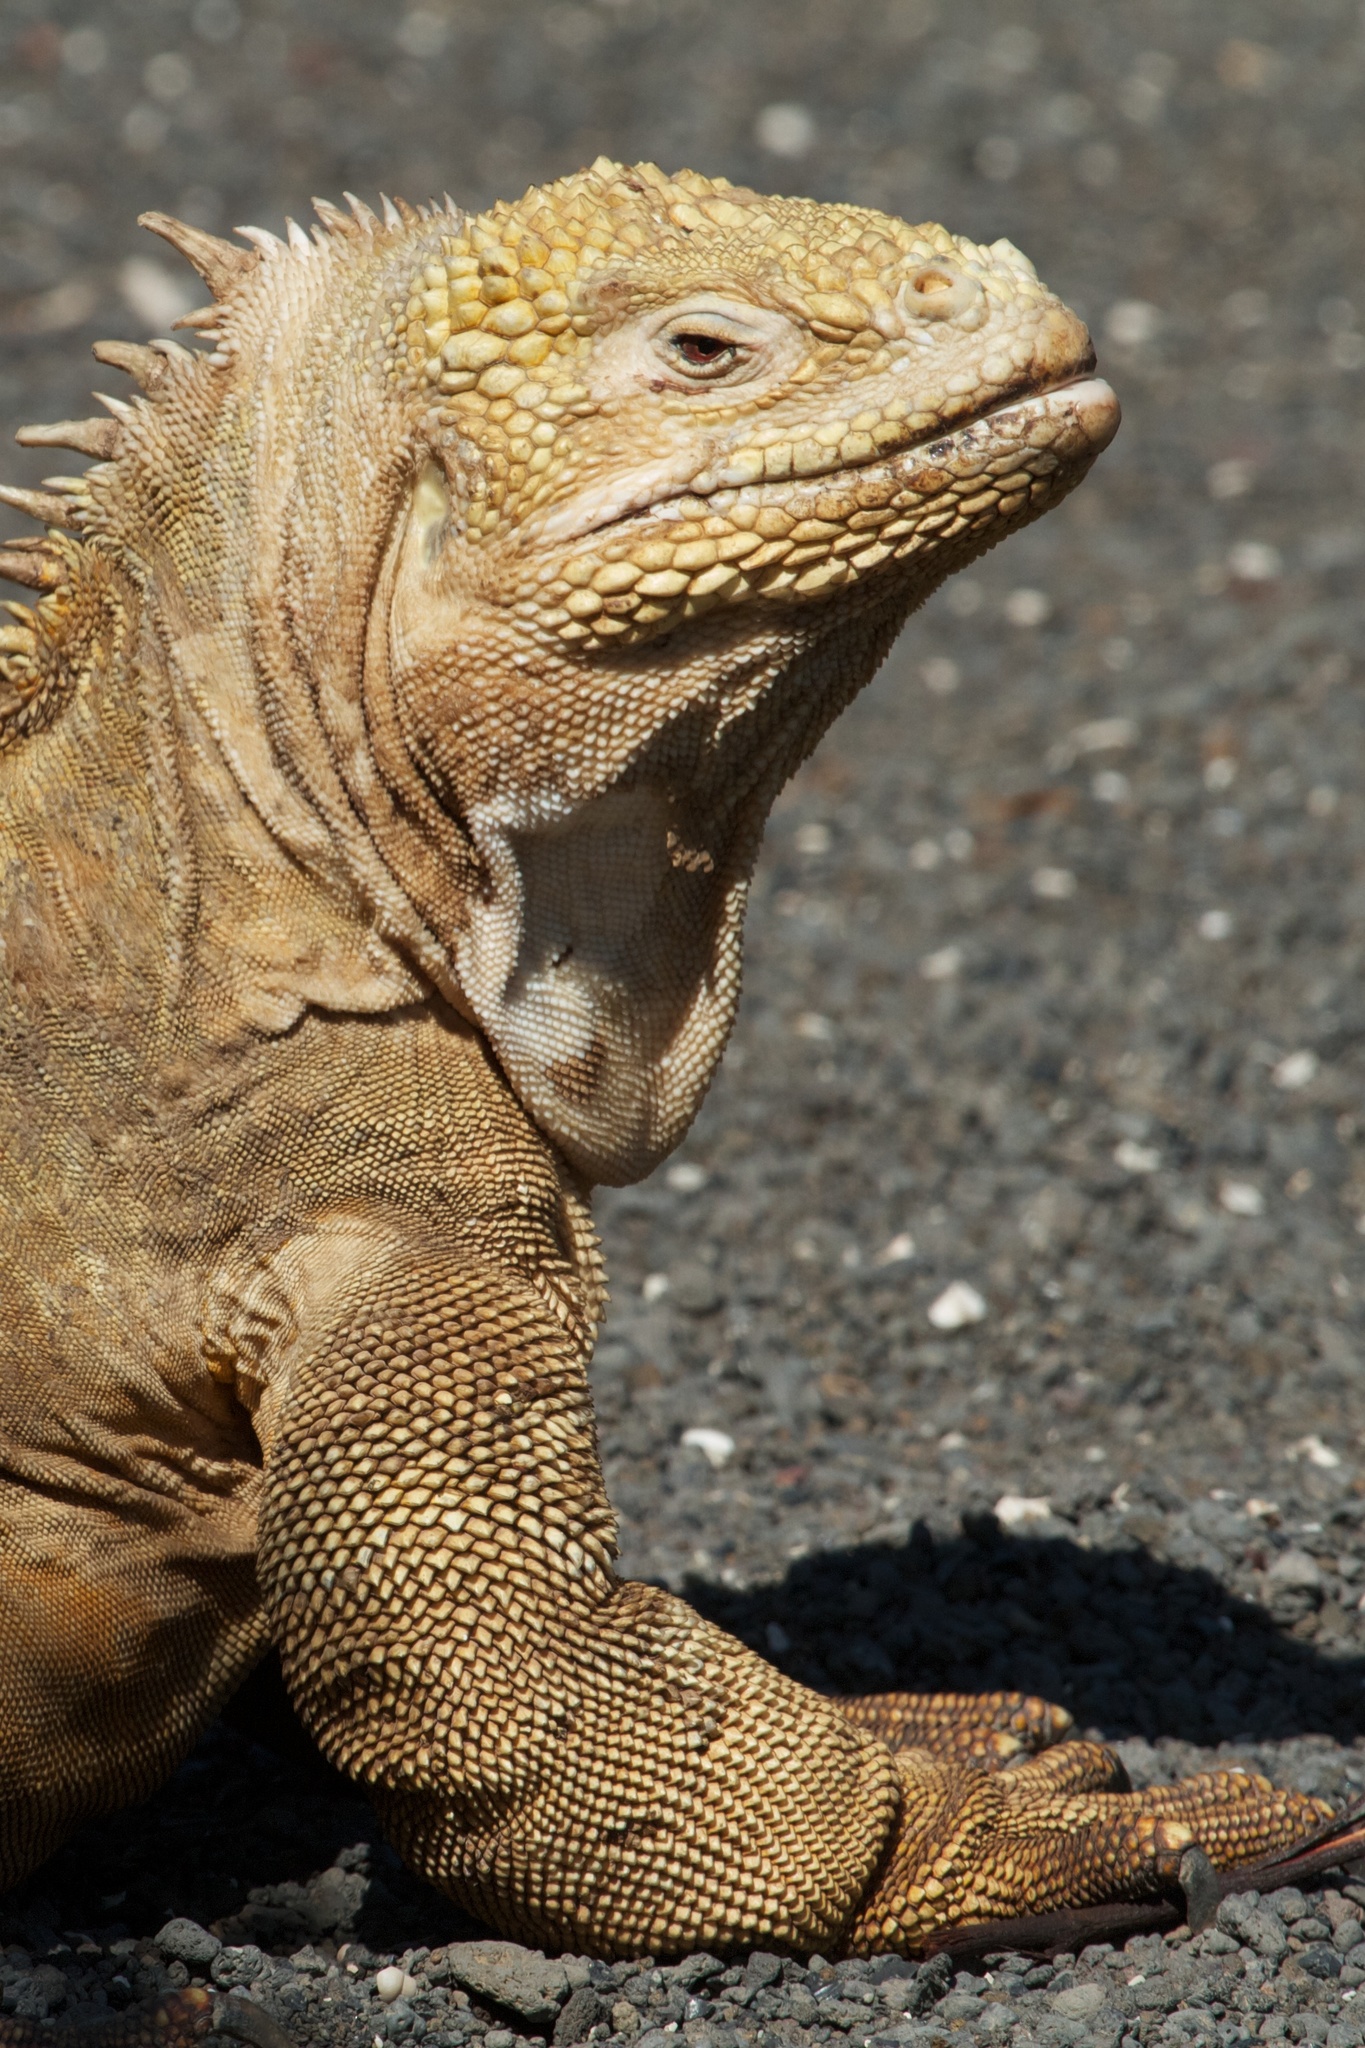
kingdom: Animalia
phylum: Chordata
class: Squamata
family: Iguanidae
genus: Conolophus
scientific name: Conolophus subcristatus
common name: Galapagos land iguana
